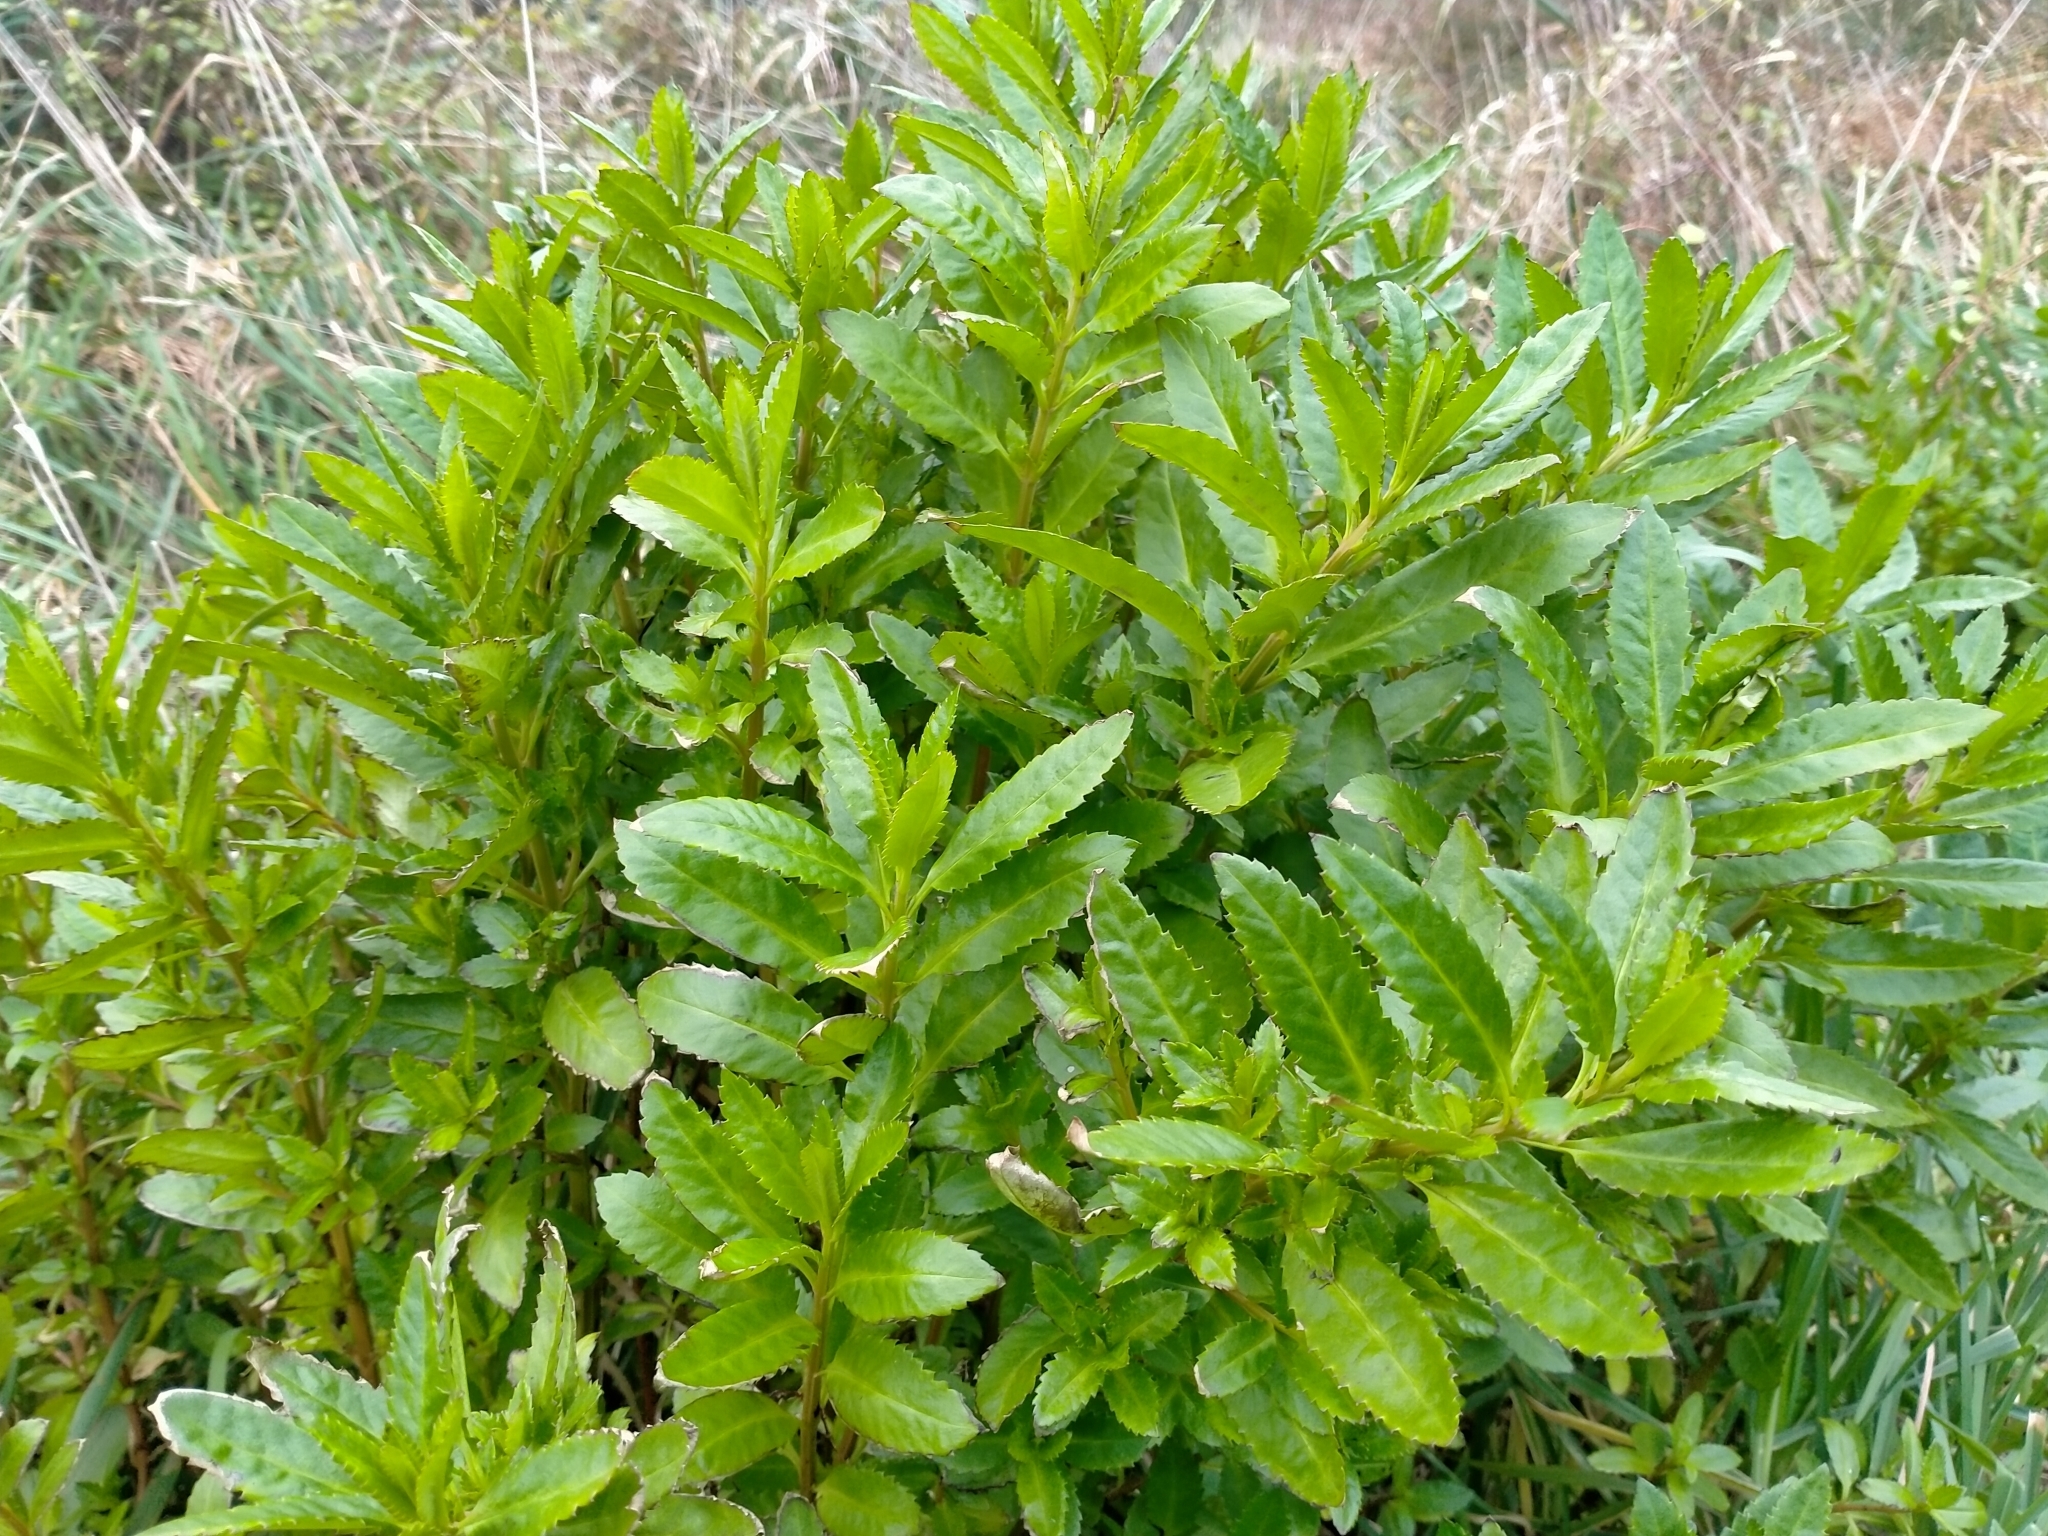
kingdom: Plantae
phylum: Tracheophyta
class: Magnoliopsida
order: Saxifragales
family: Haloragaceae
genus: Haloragis
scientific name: Haloragis erecta
